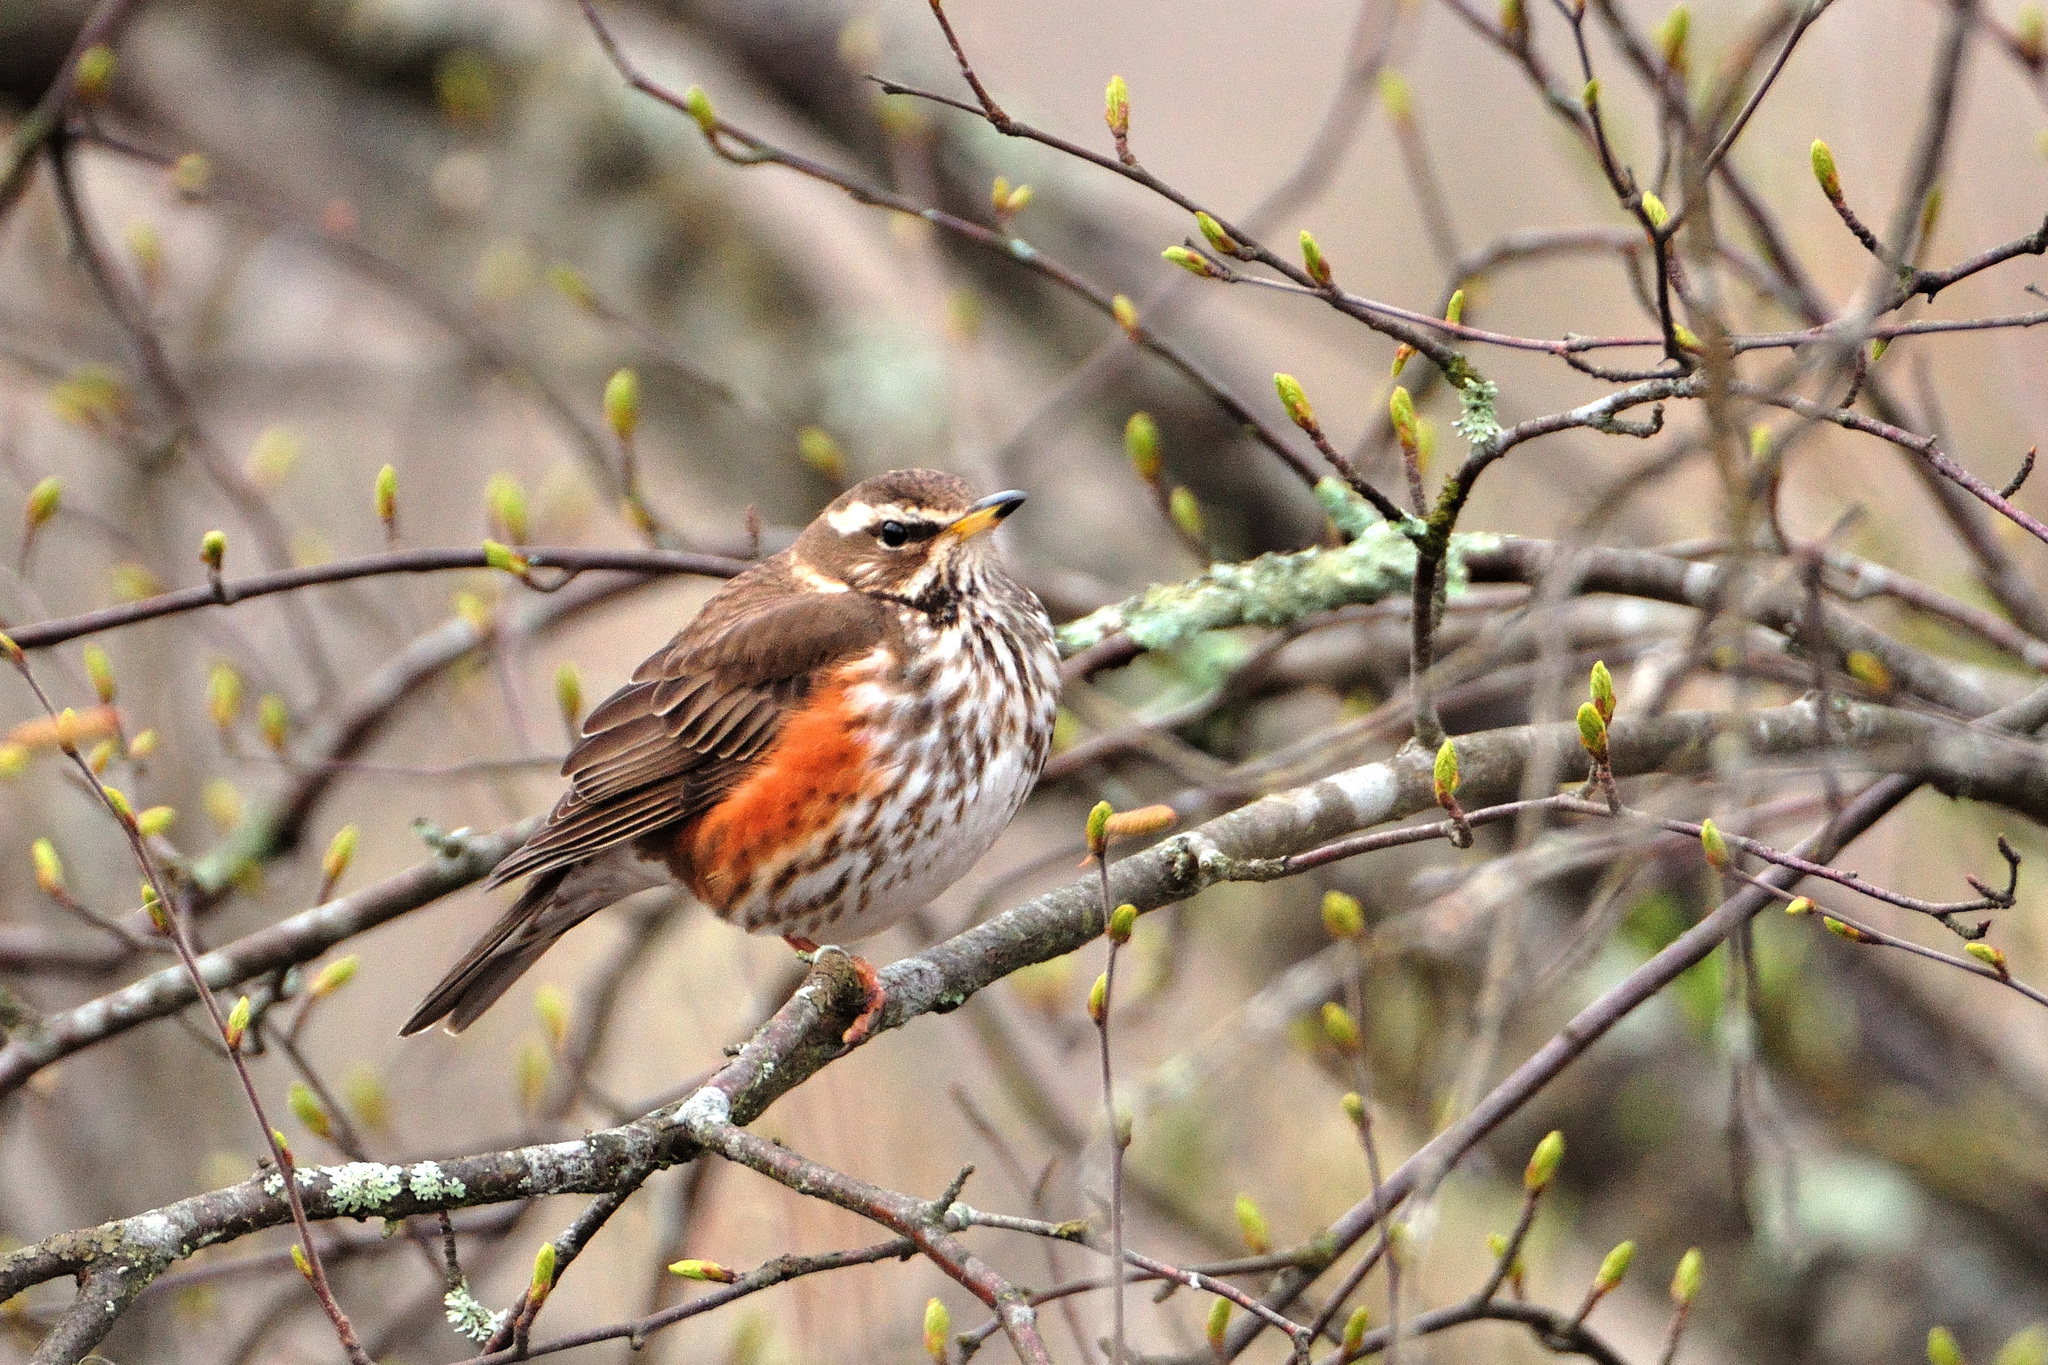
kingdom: Animalia
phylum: Chordata
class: Aves
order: Passeriformes
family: Turdidae
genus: Turdus
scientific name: Turdus iliacus
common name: Redwing
